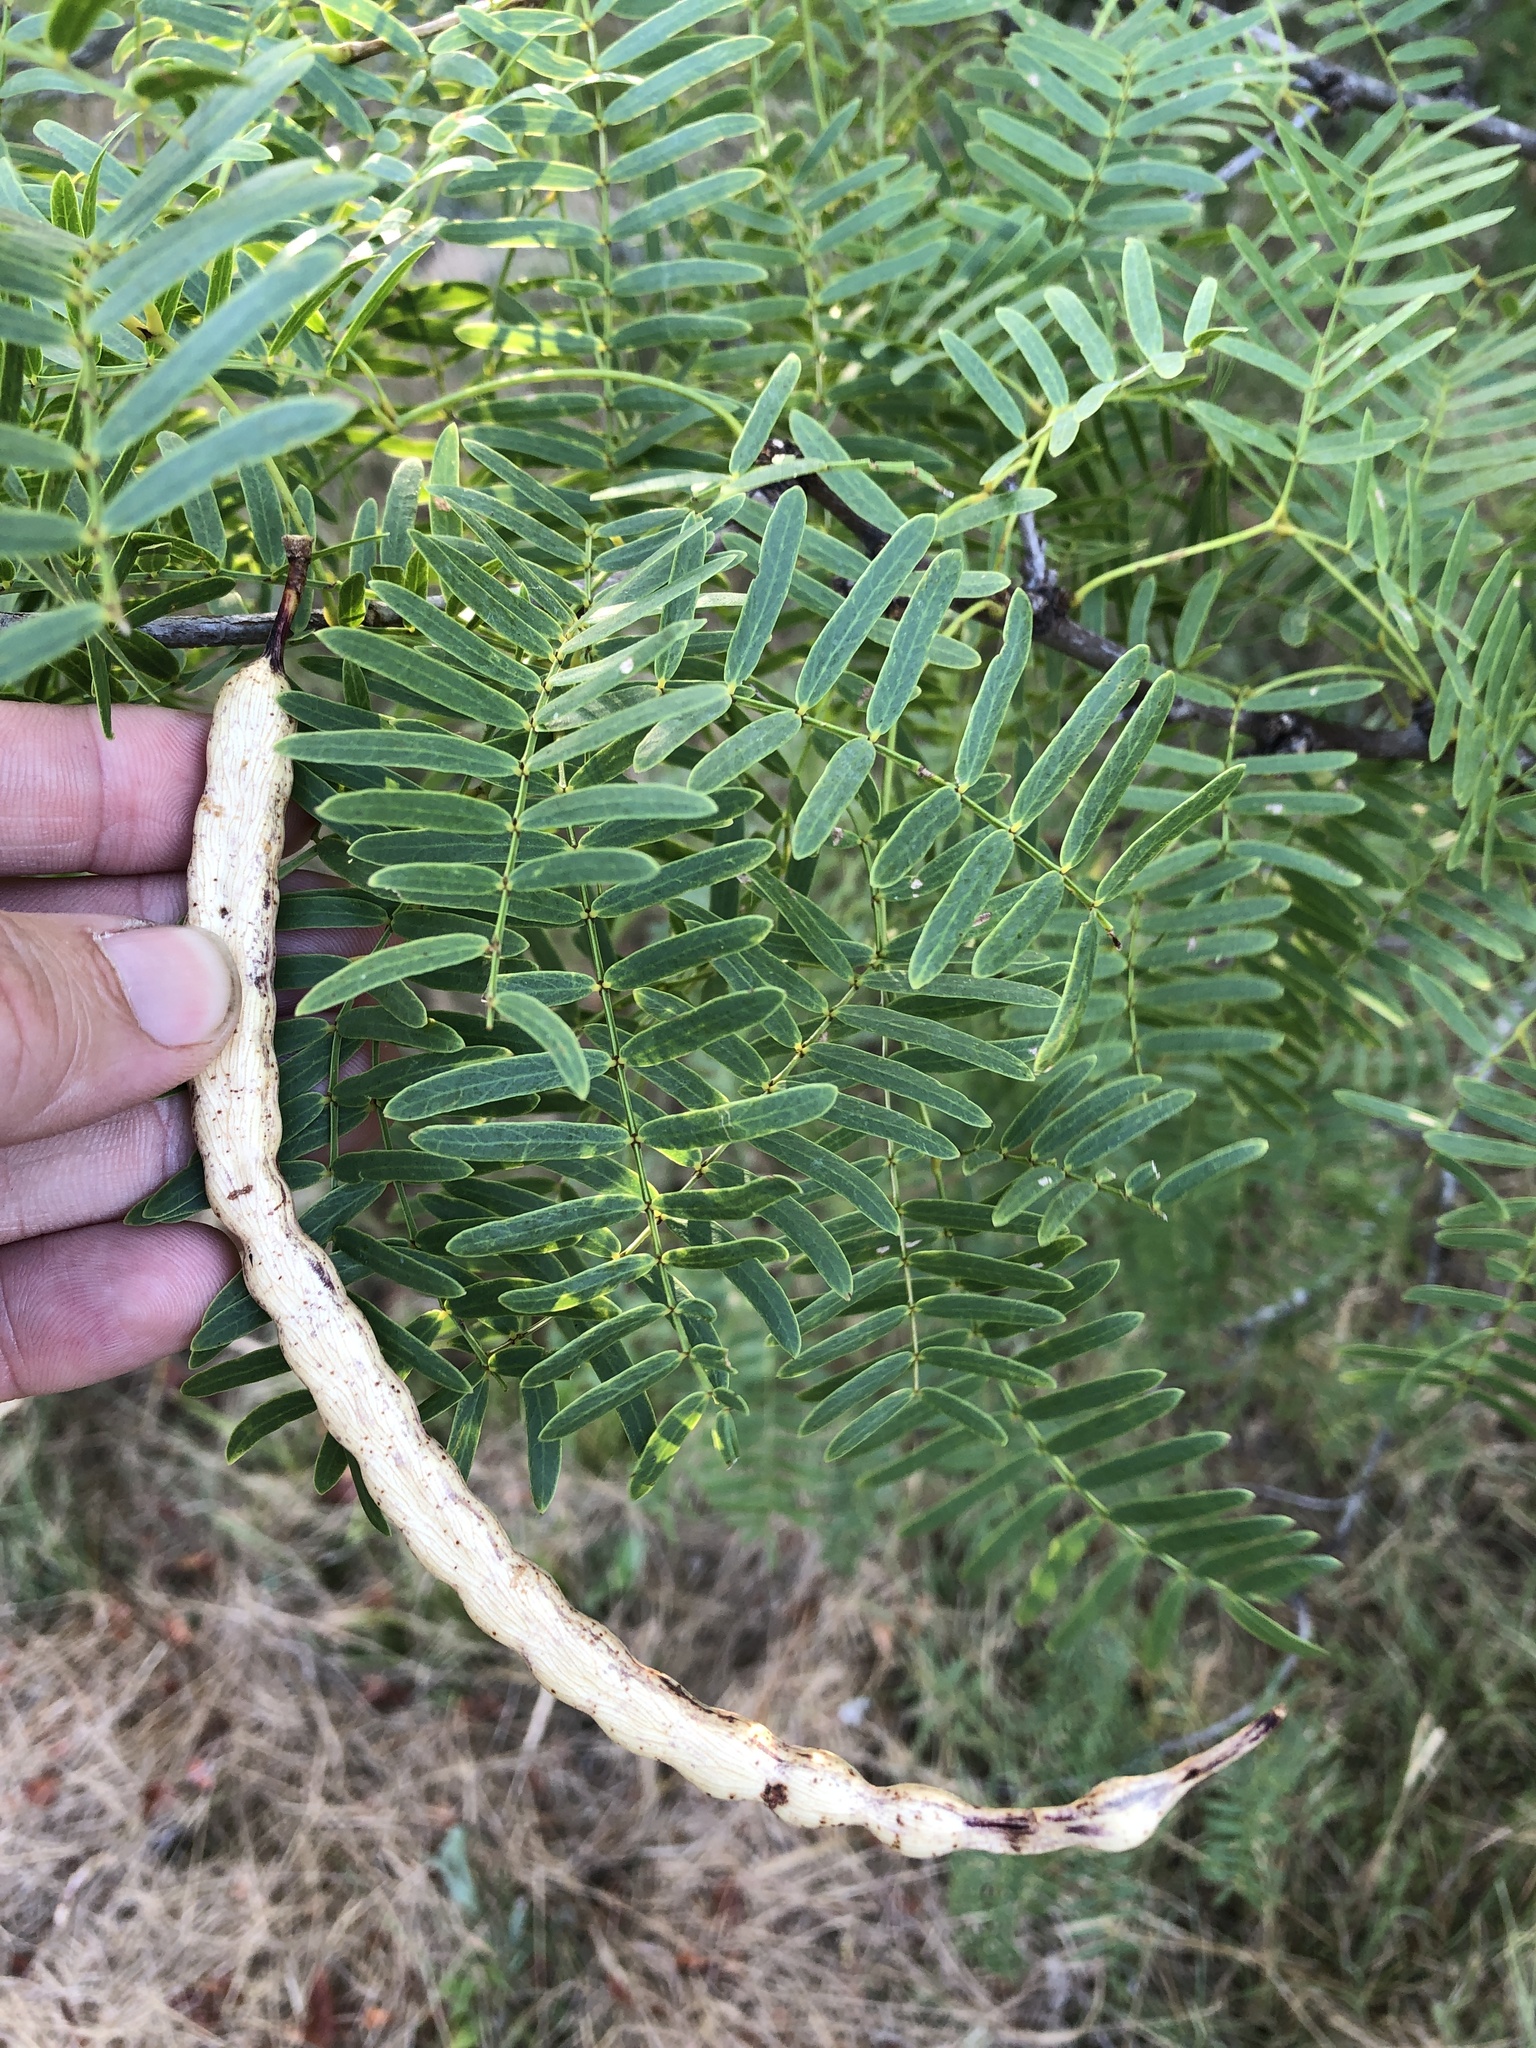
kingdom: Plantae
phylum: Tracheophyta
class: Magnoliopsida
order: Fabales
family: Fabaceae
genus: Prosopis
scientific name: Prosopis glandulosa
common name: Honey mesquite
